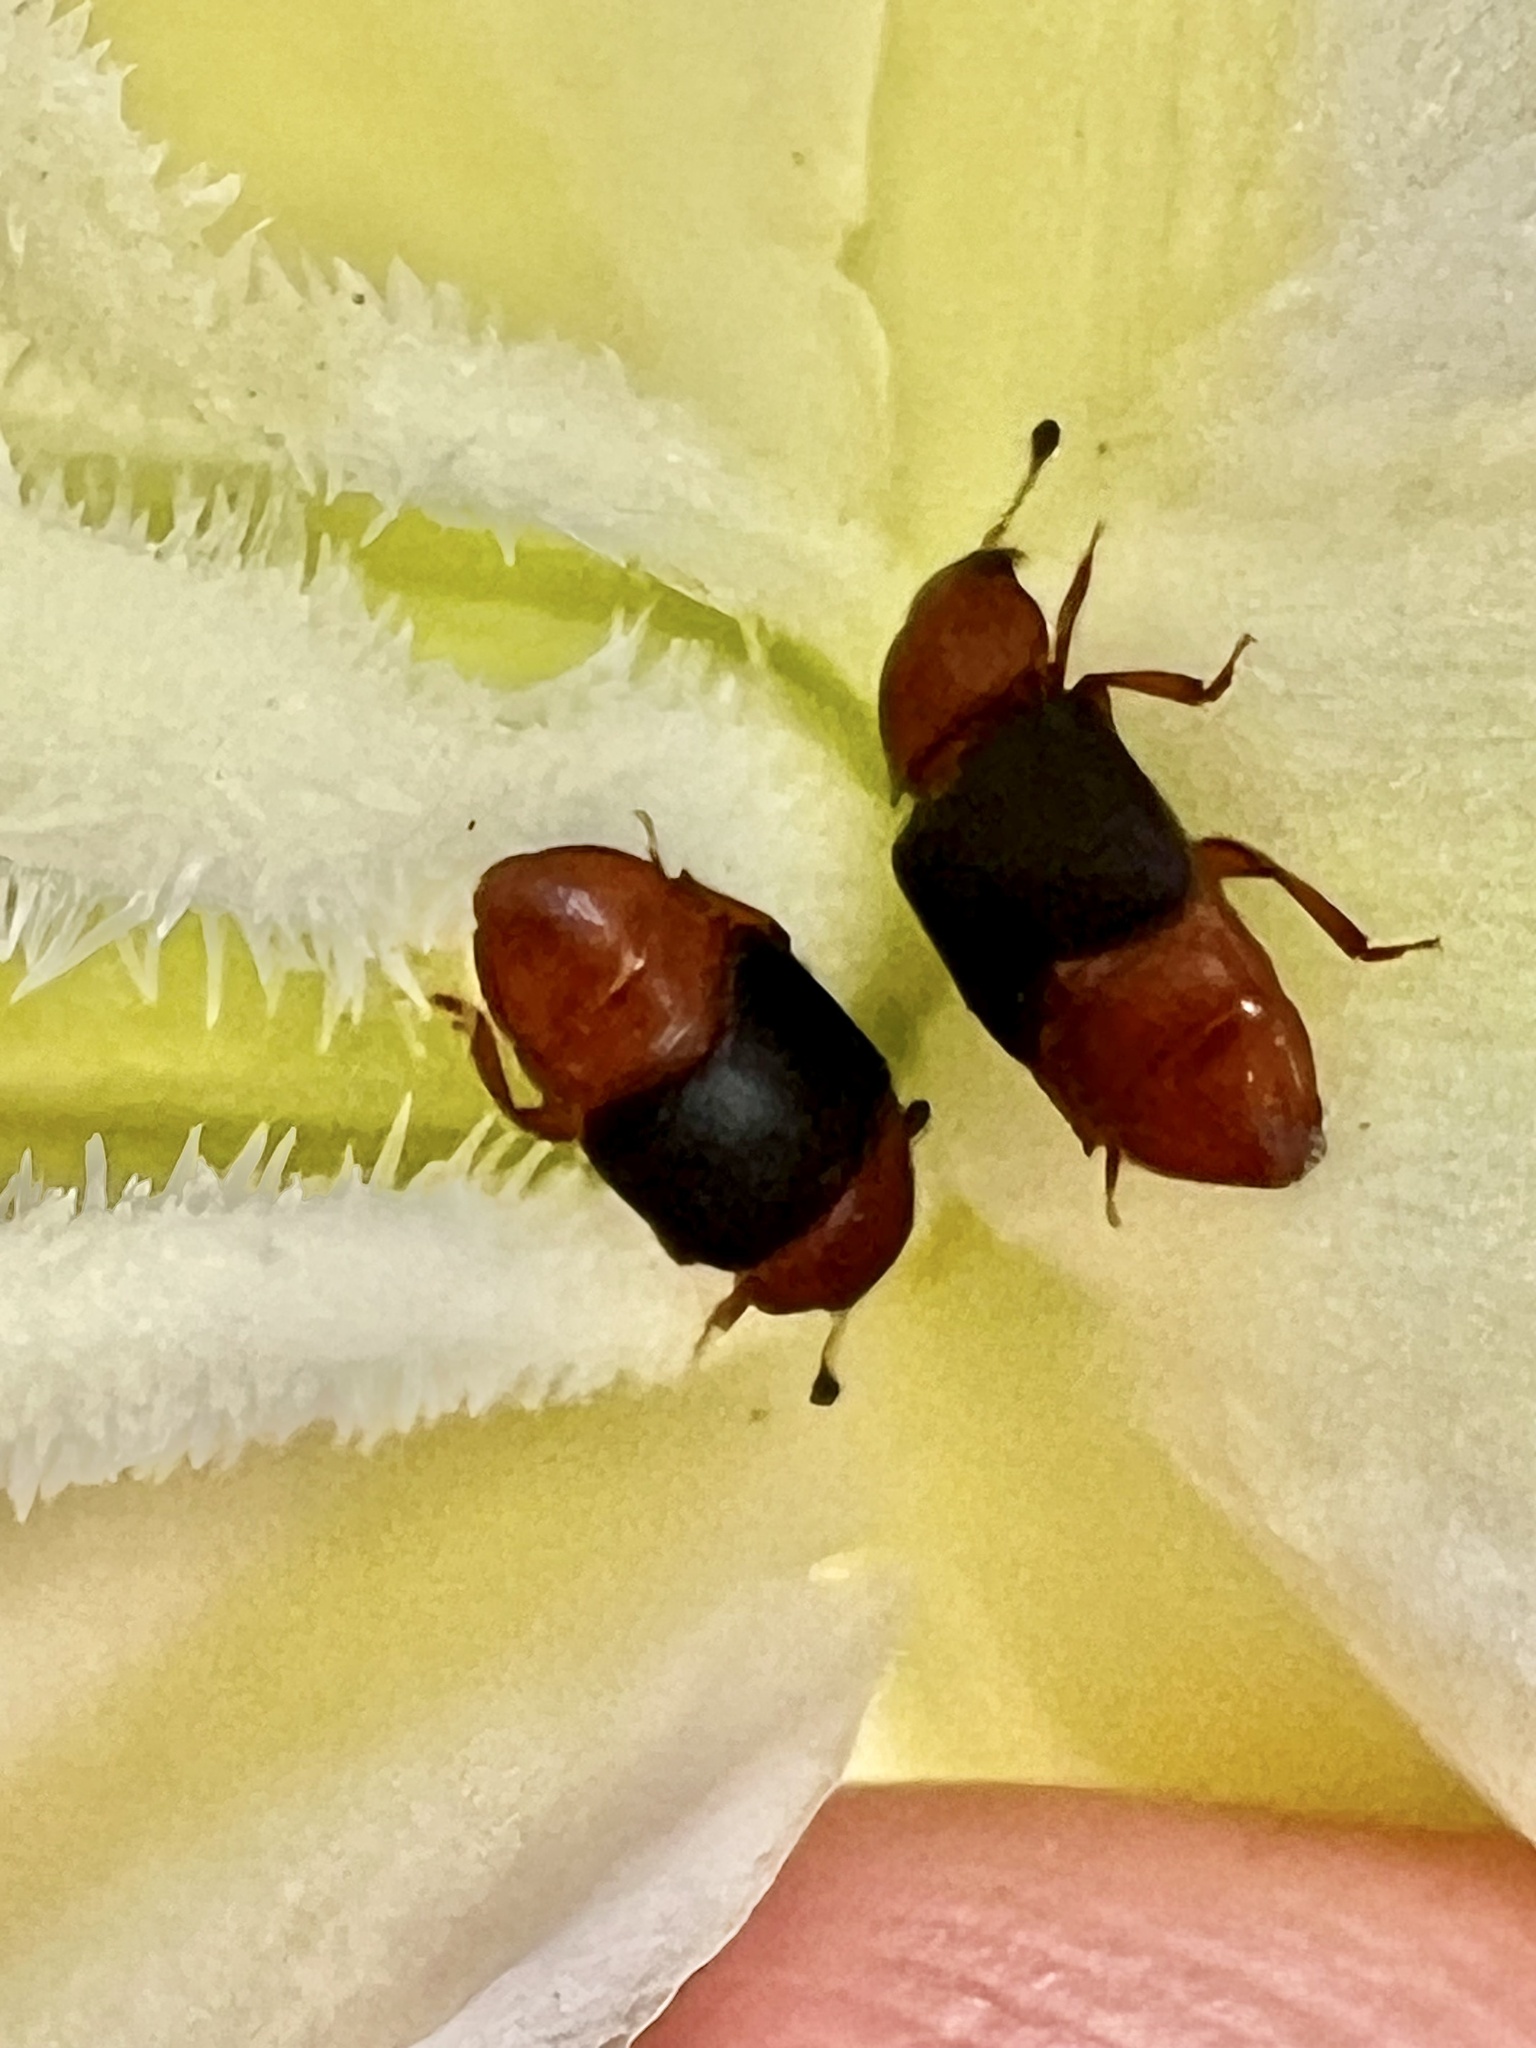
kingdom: Animalia
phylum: Arthropoda
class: Insecta
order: Coleoptera
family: Nitidulidae
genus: Carpophilus
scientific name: Carpophilus
